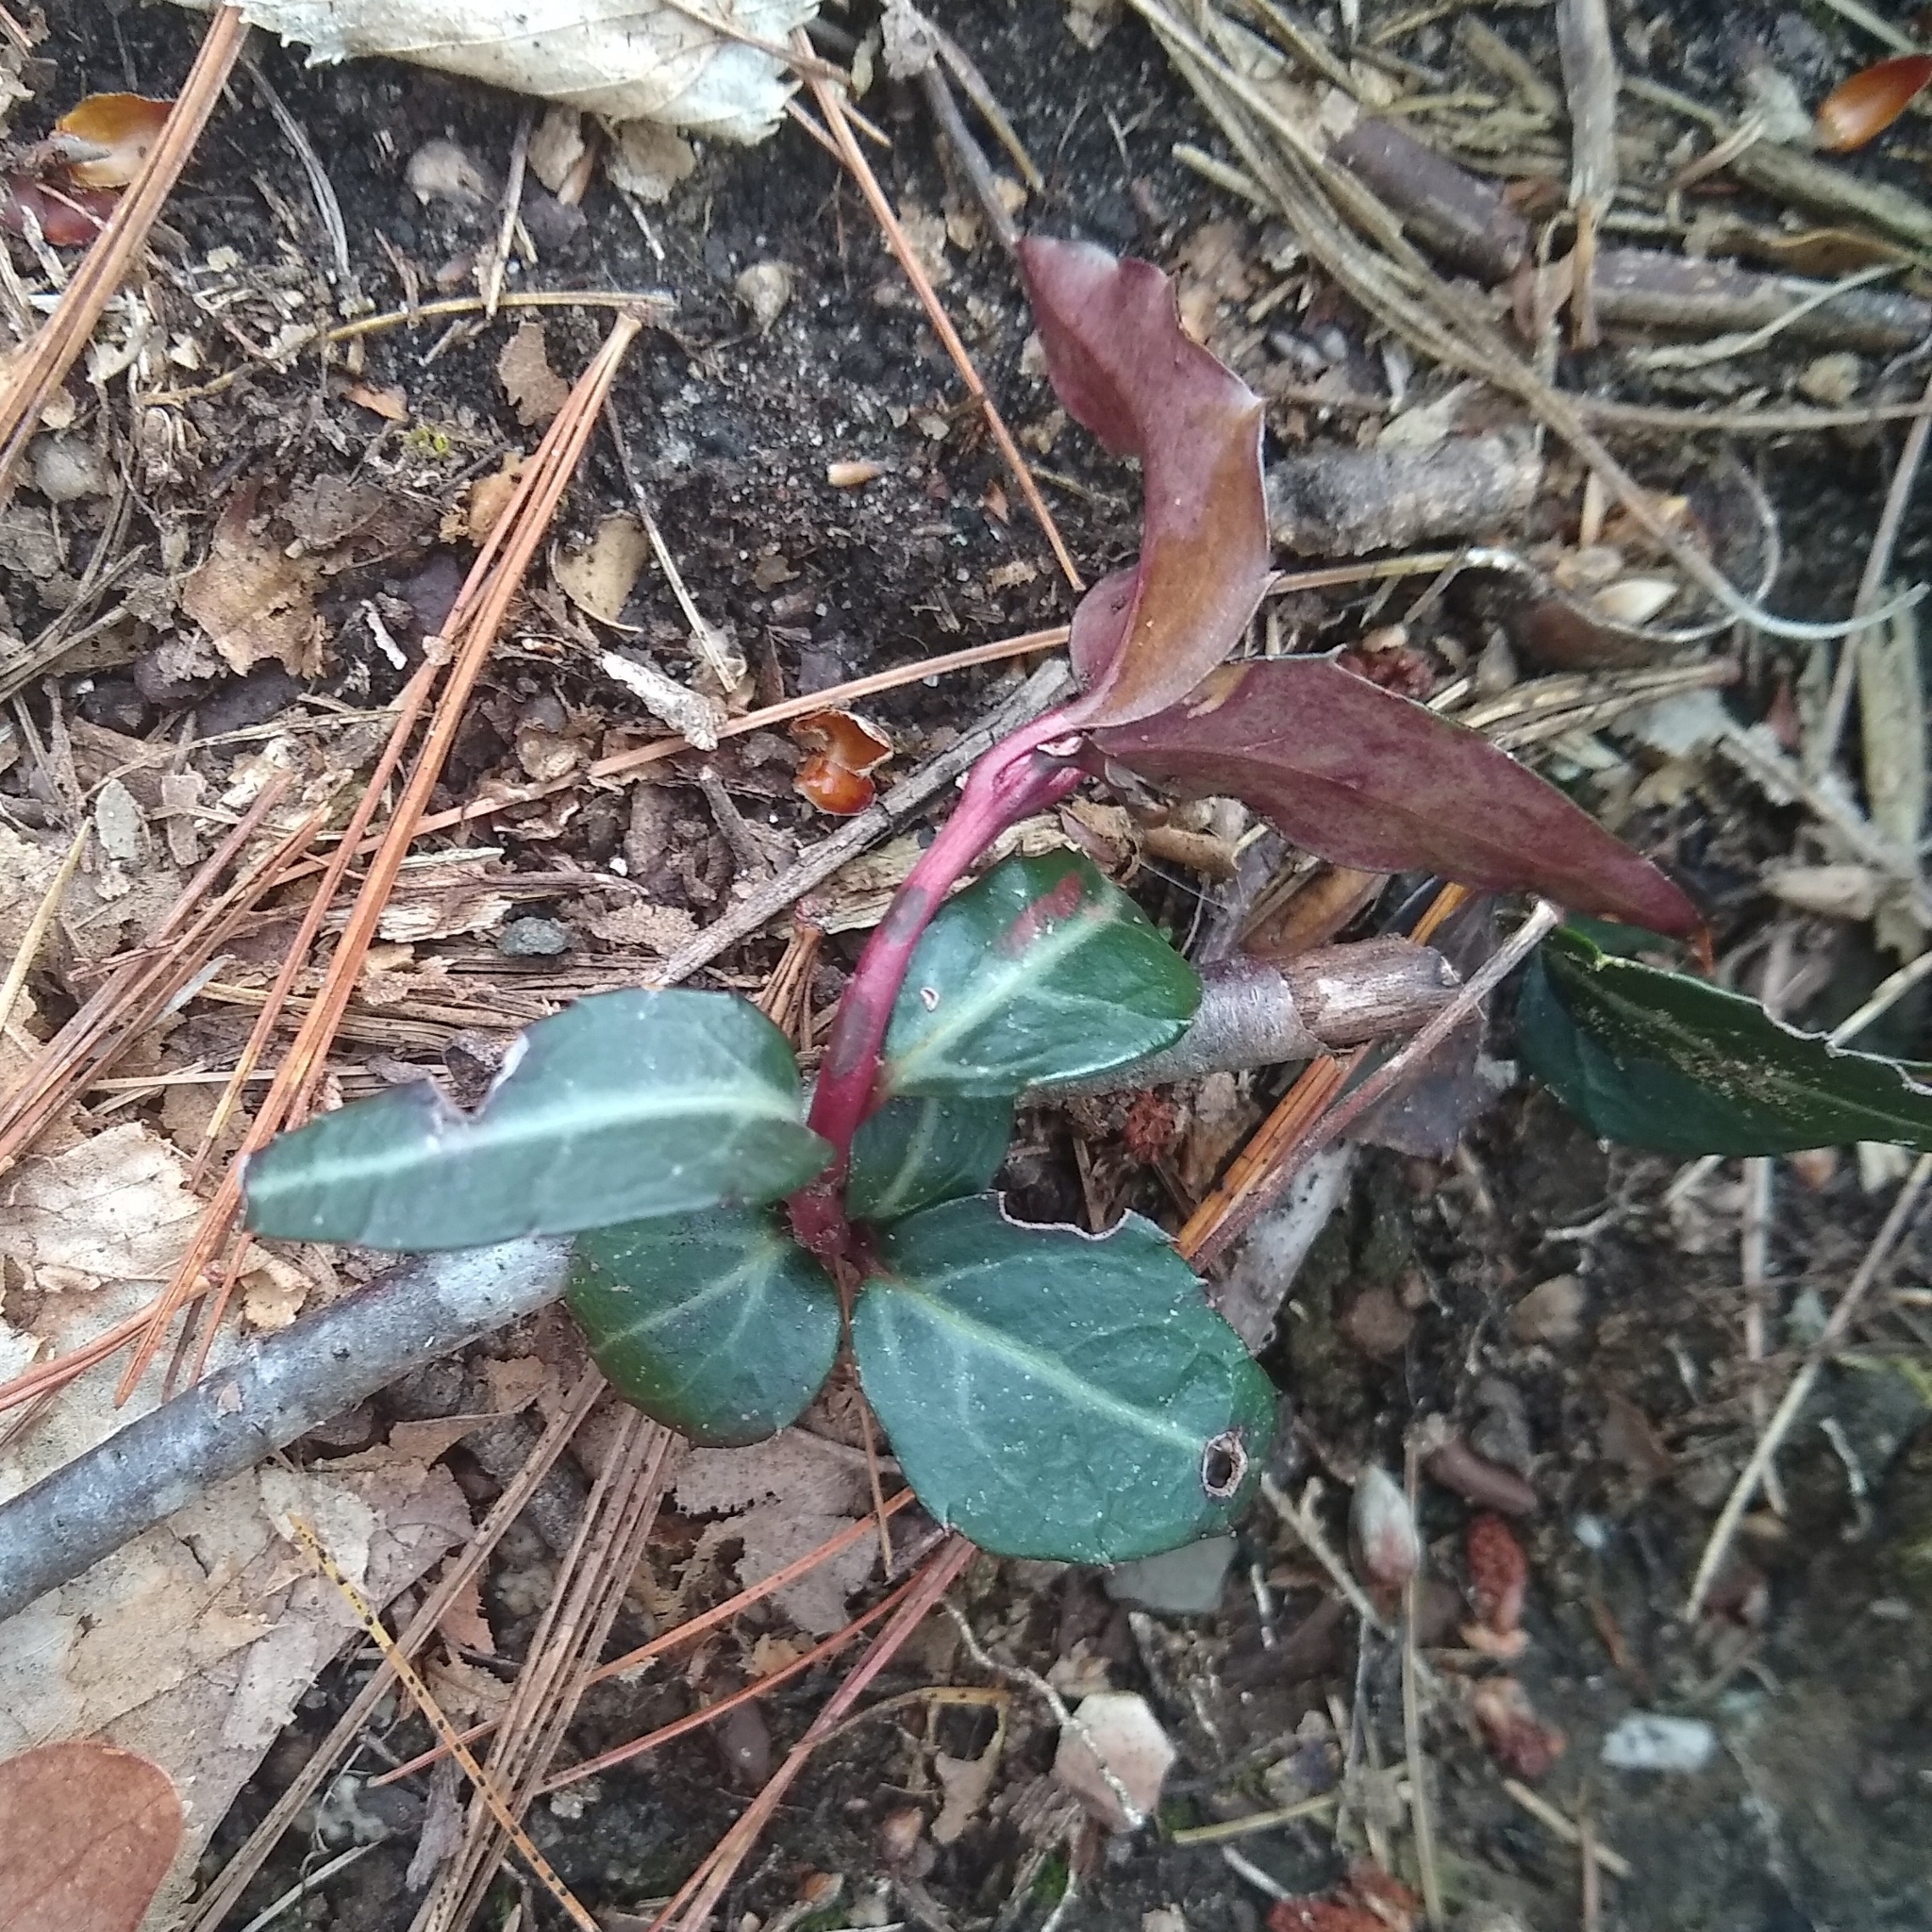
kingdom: Plantae
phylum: Tracheophyta
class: Magnoliopsida
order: Ericales
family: Ericaceae
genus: Chimaphila
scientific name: Chimaphila maculata
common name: Spotted pipsissewa
